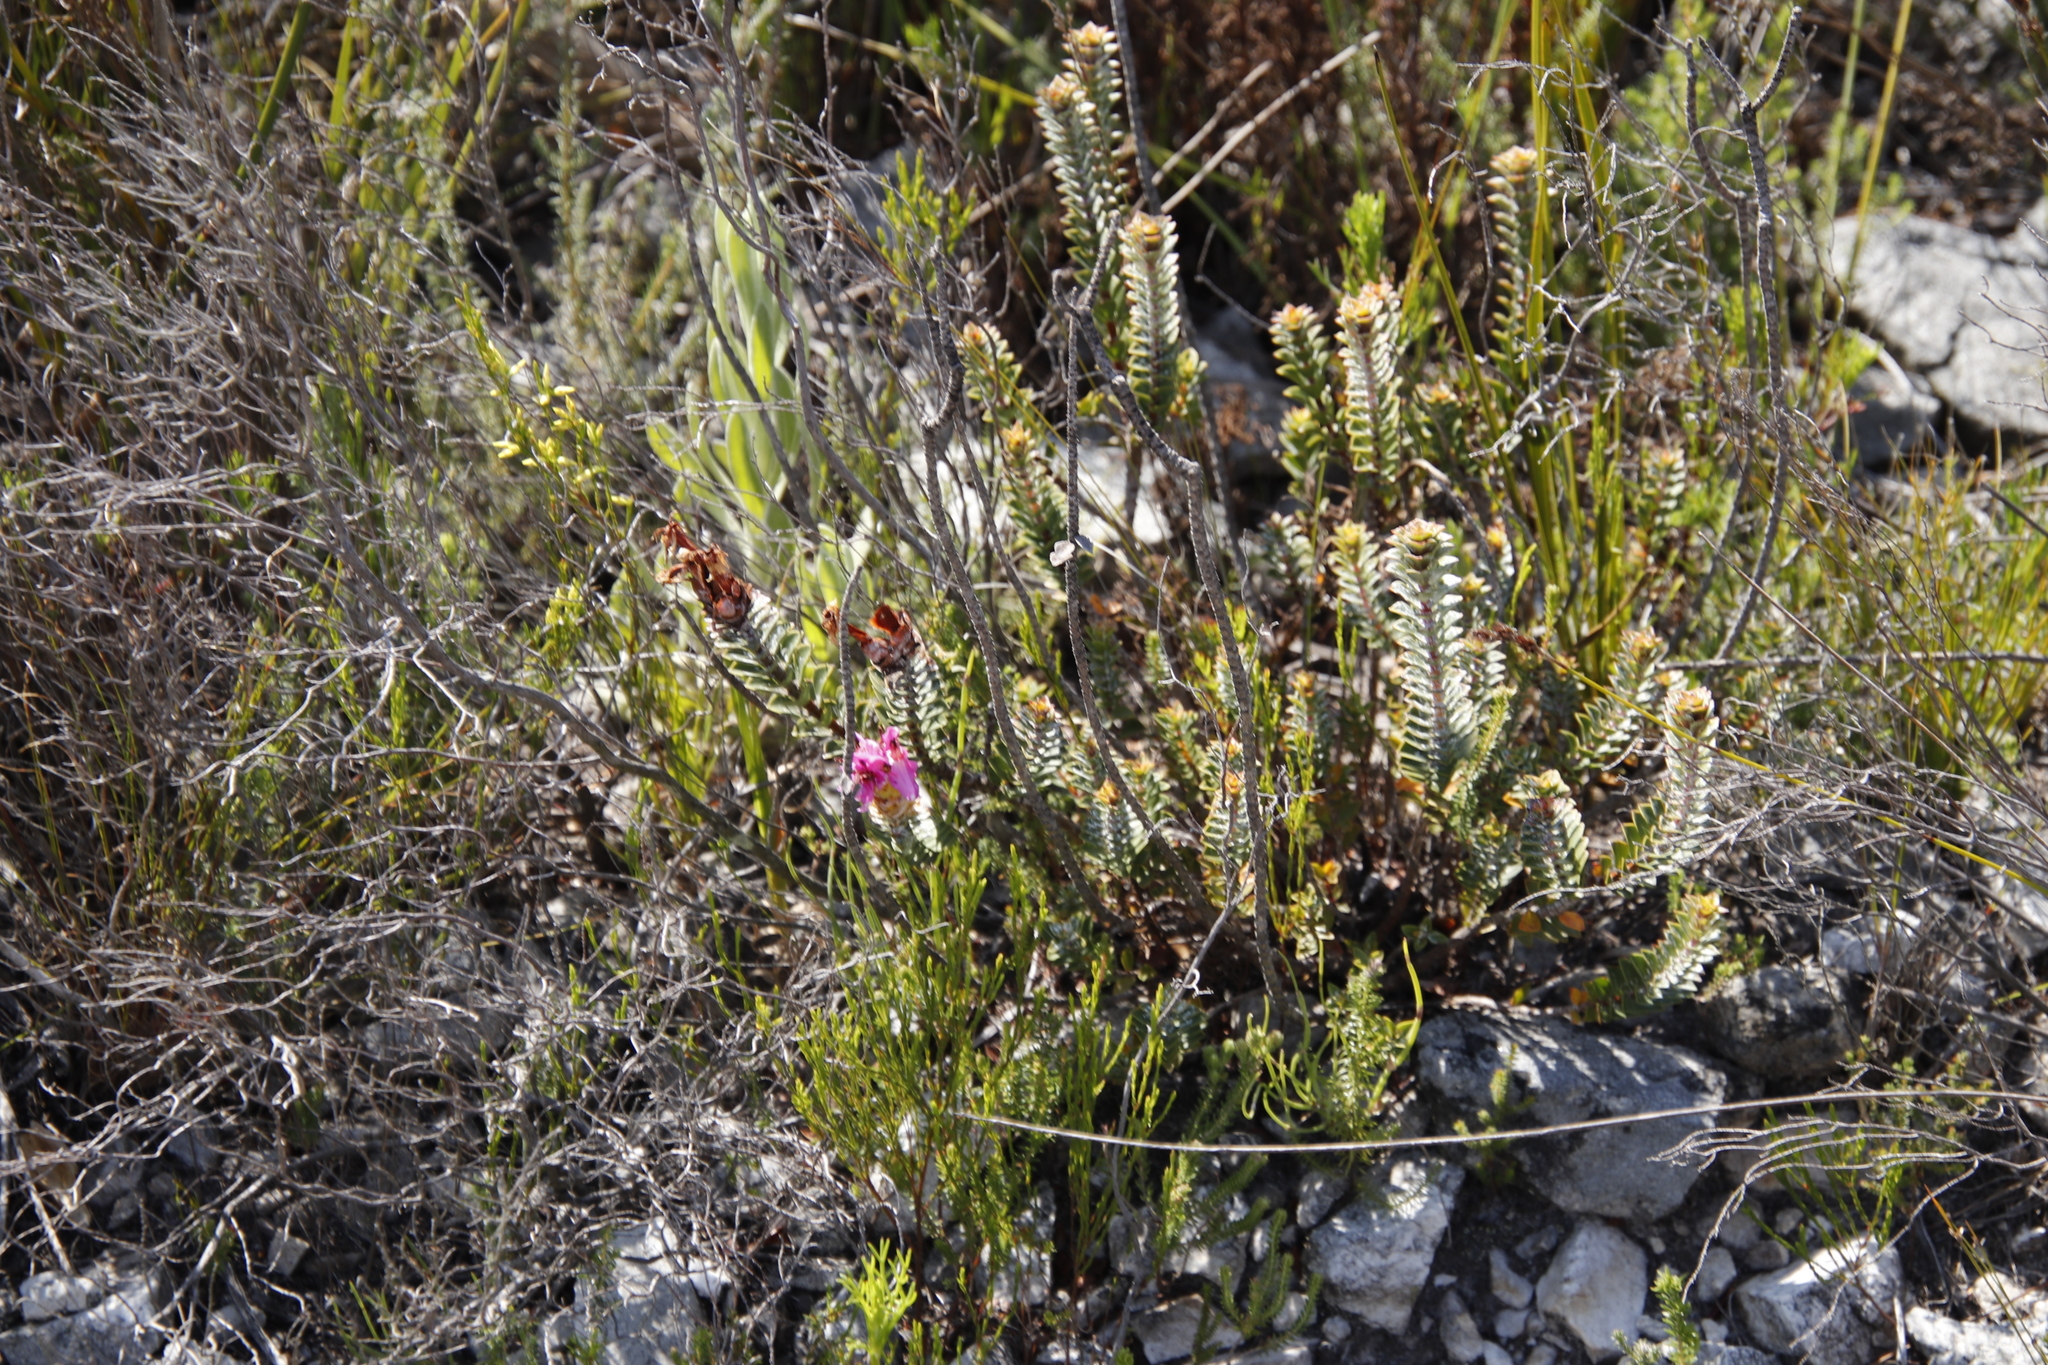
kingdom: Plantae
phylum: Tracheophyta
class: Magnoliopsida
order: Myrtales
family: Penaeaceae
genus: Saltera
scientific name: Saltera sarcocolla
